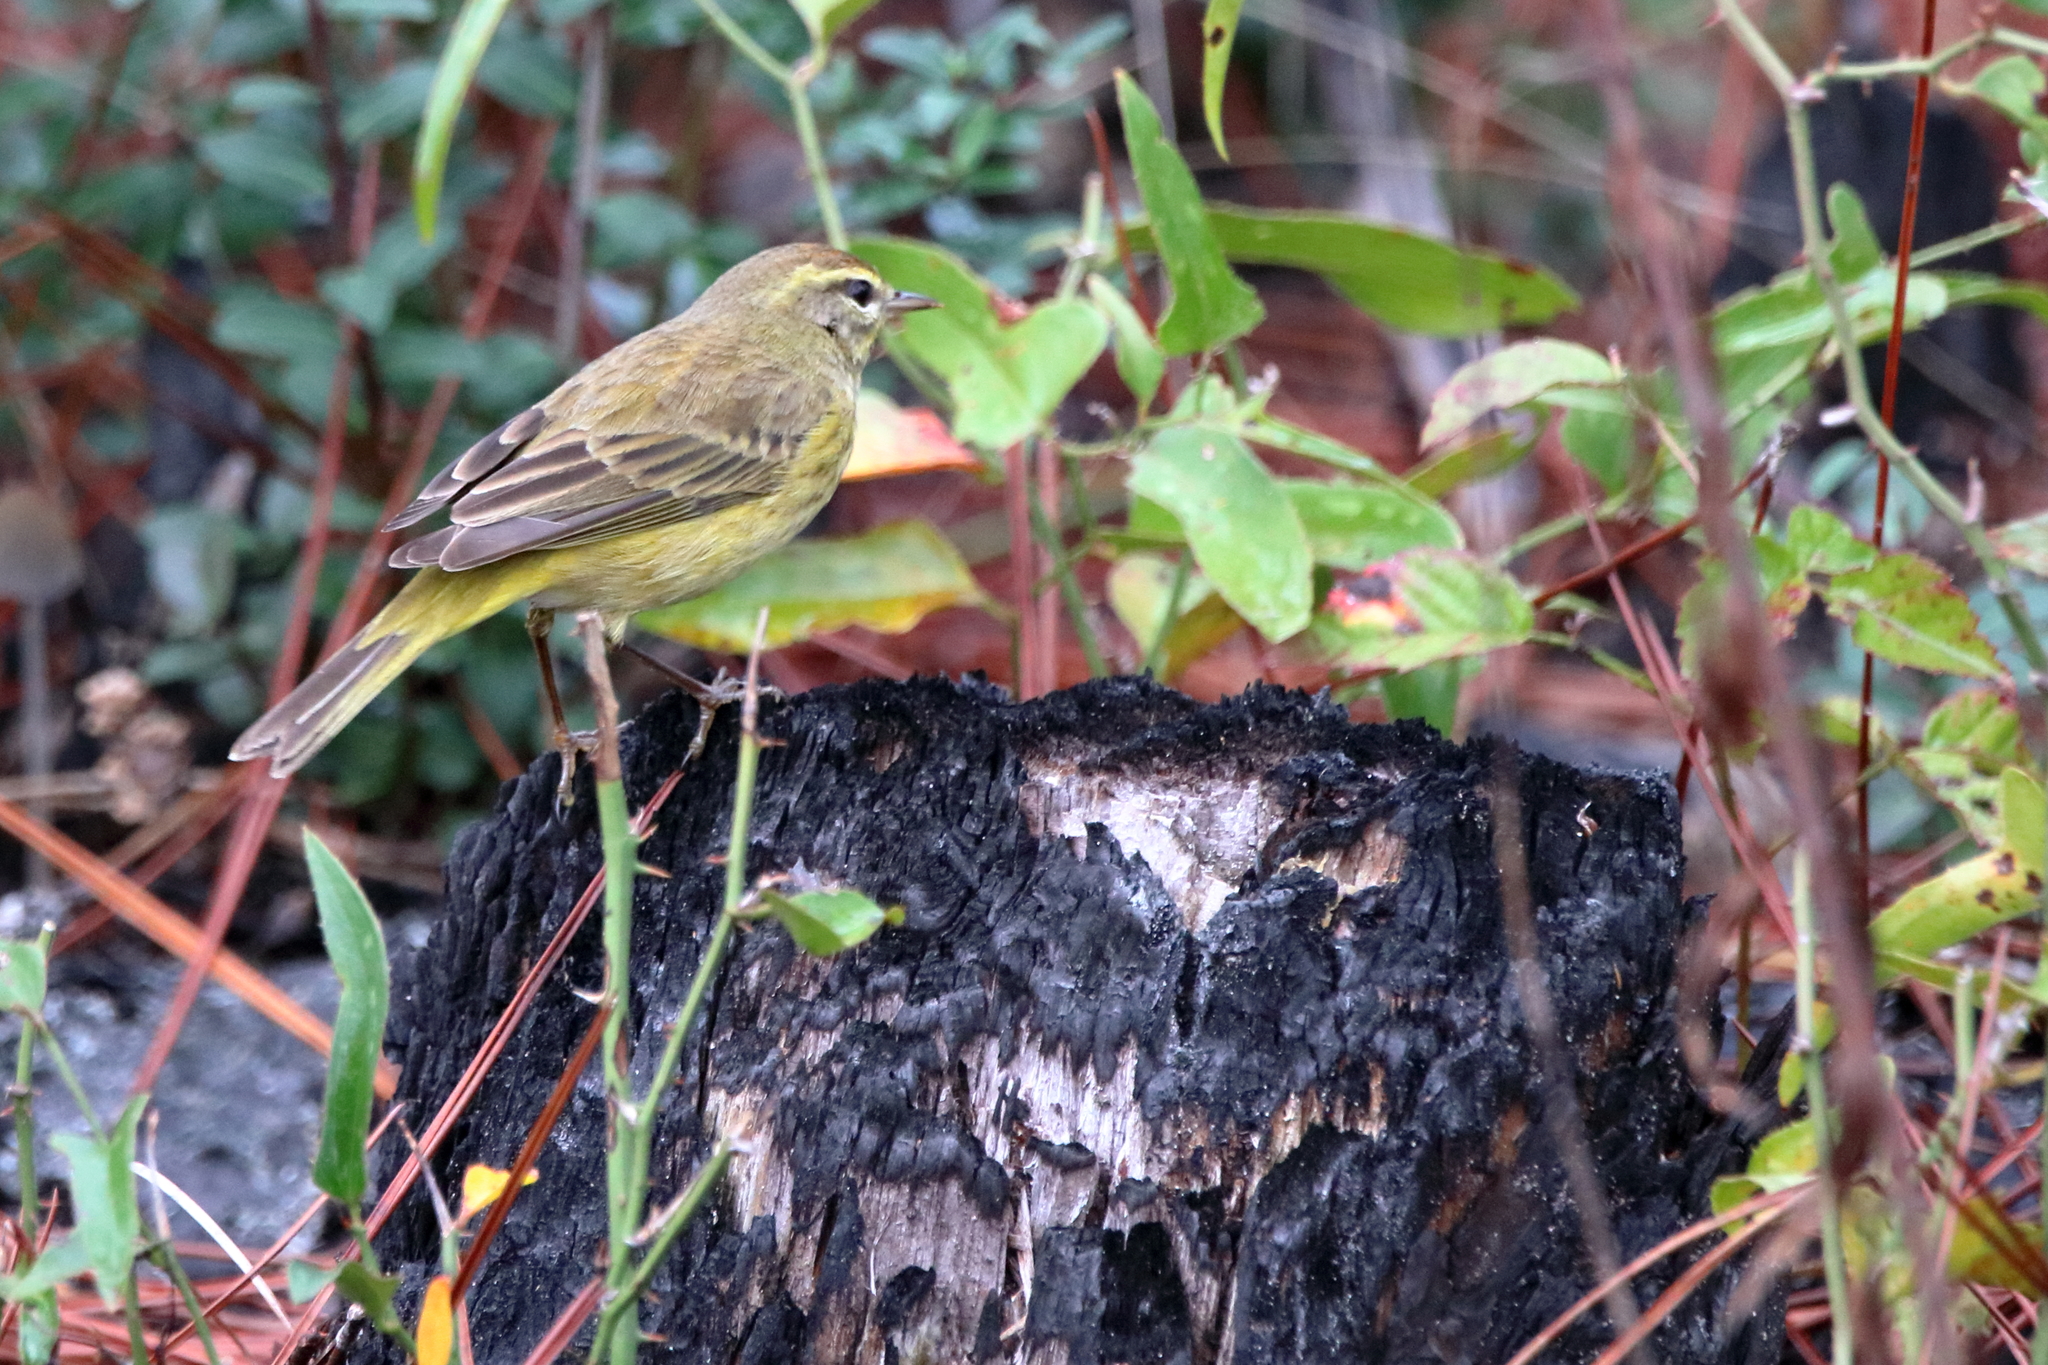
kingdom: Animalia
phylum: Chordata
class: Aves
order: Passeriformes
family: Parulidae
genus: Setophaga
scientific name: Setophaga palmarum
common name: Palm warbler
